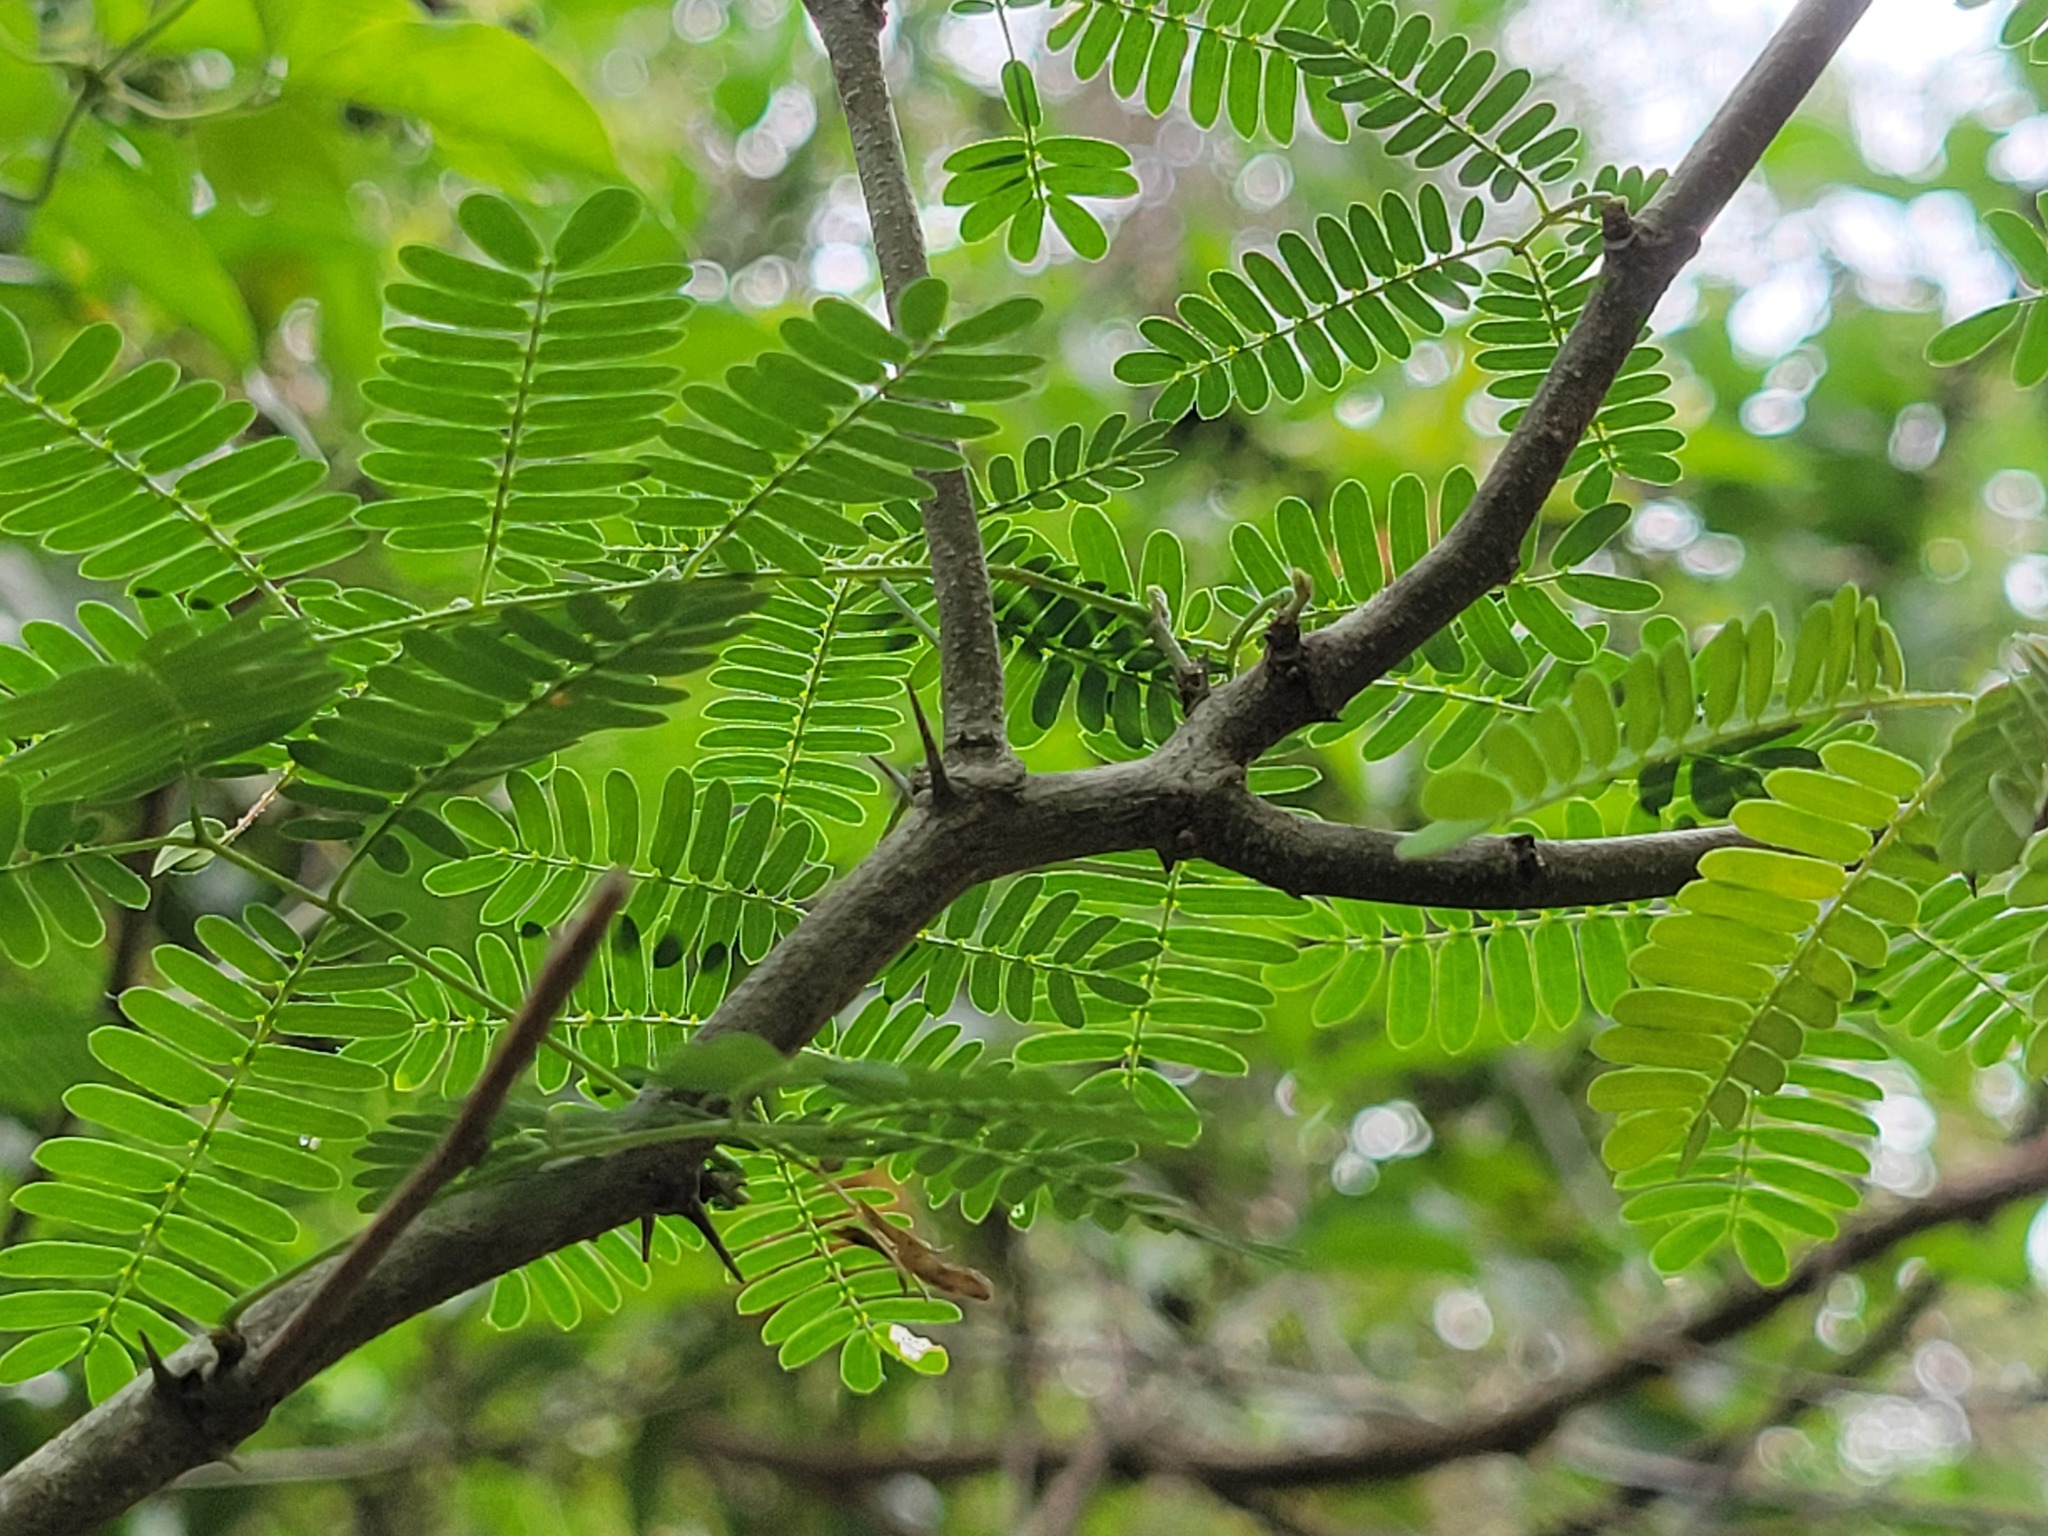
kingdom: Plantae
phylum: Tracheophyta
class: Magnoliopsida
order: Fabales
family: Fabaceae
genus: Havardia
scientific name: Havardia pallens
